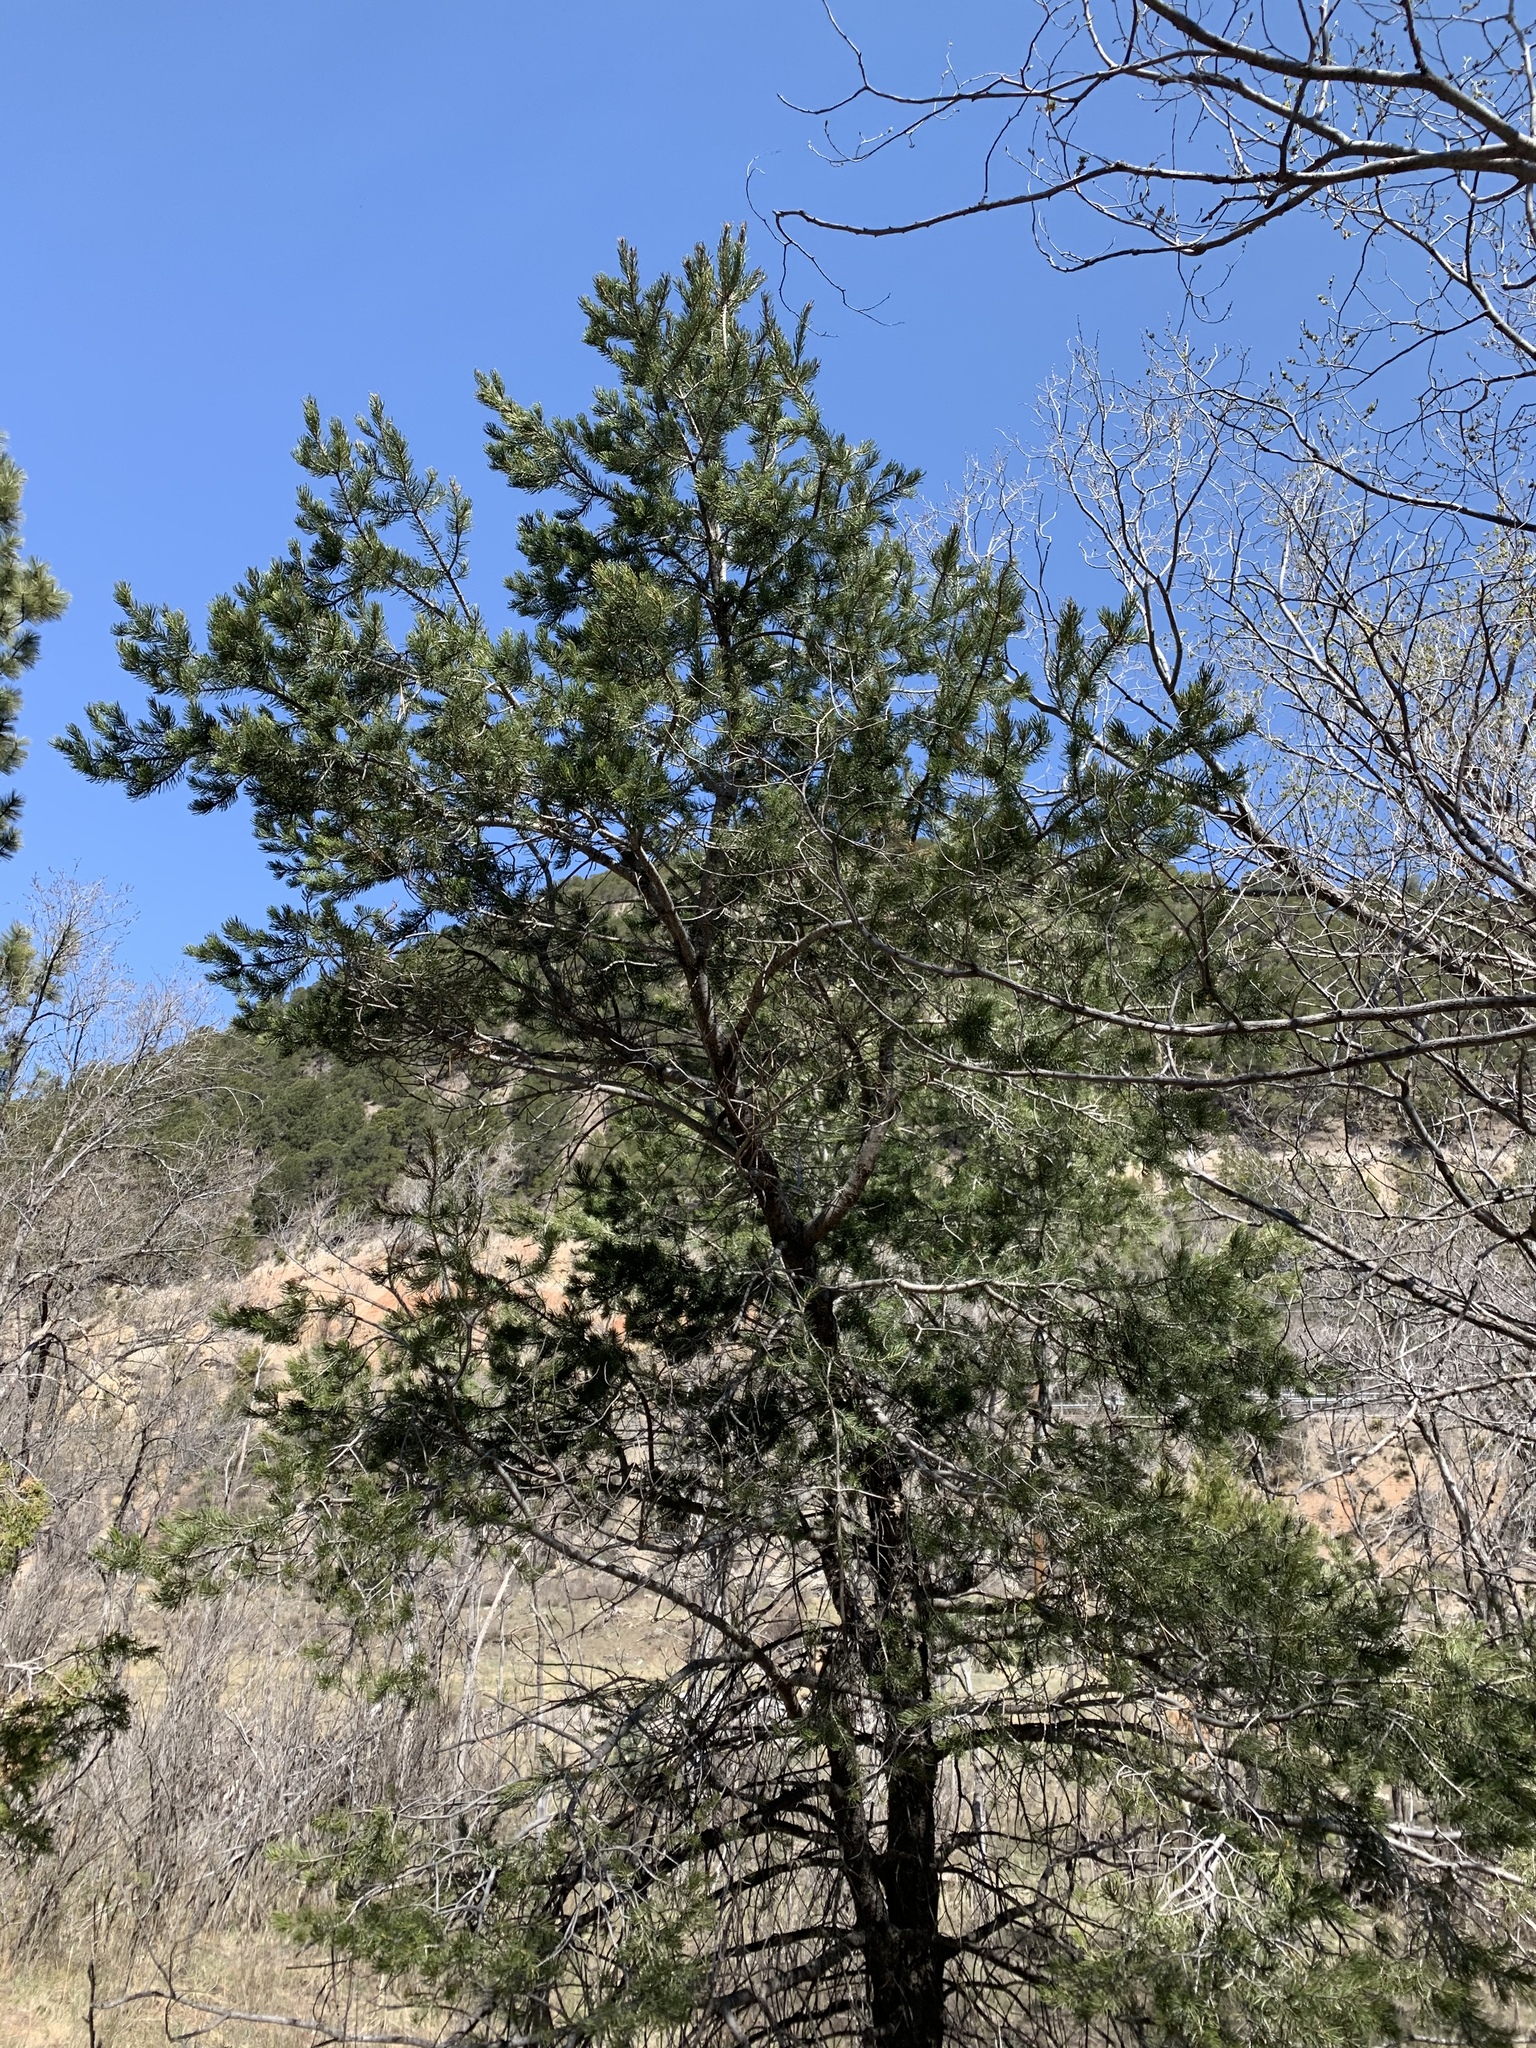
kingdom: Plantae
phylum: Tracheophyta
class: Pinopsida
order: Pinales
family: Pinaceae
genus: Pinus
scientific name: Pinus edulis
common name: Colorado pinyon
